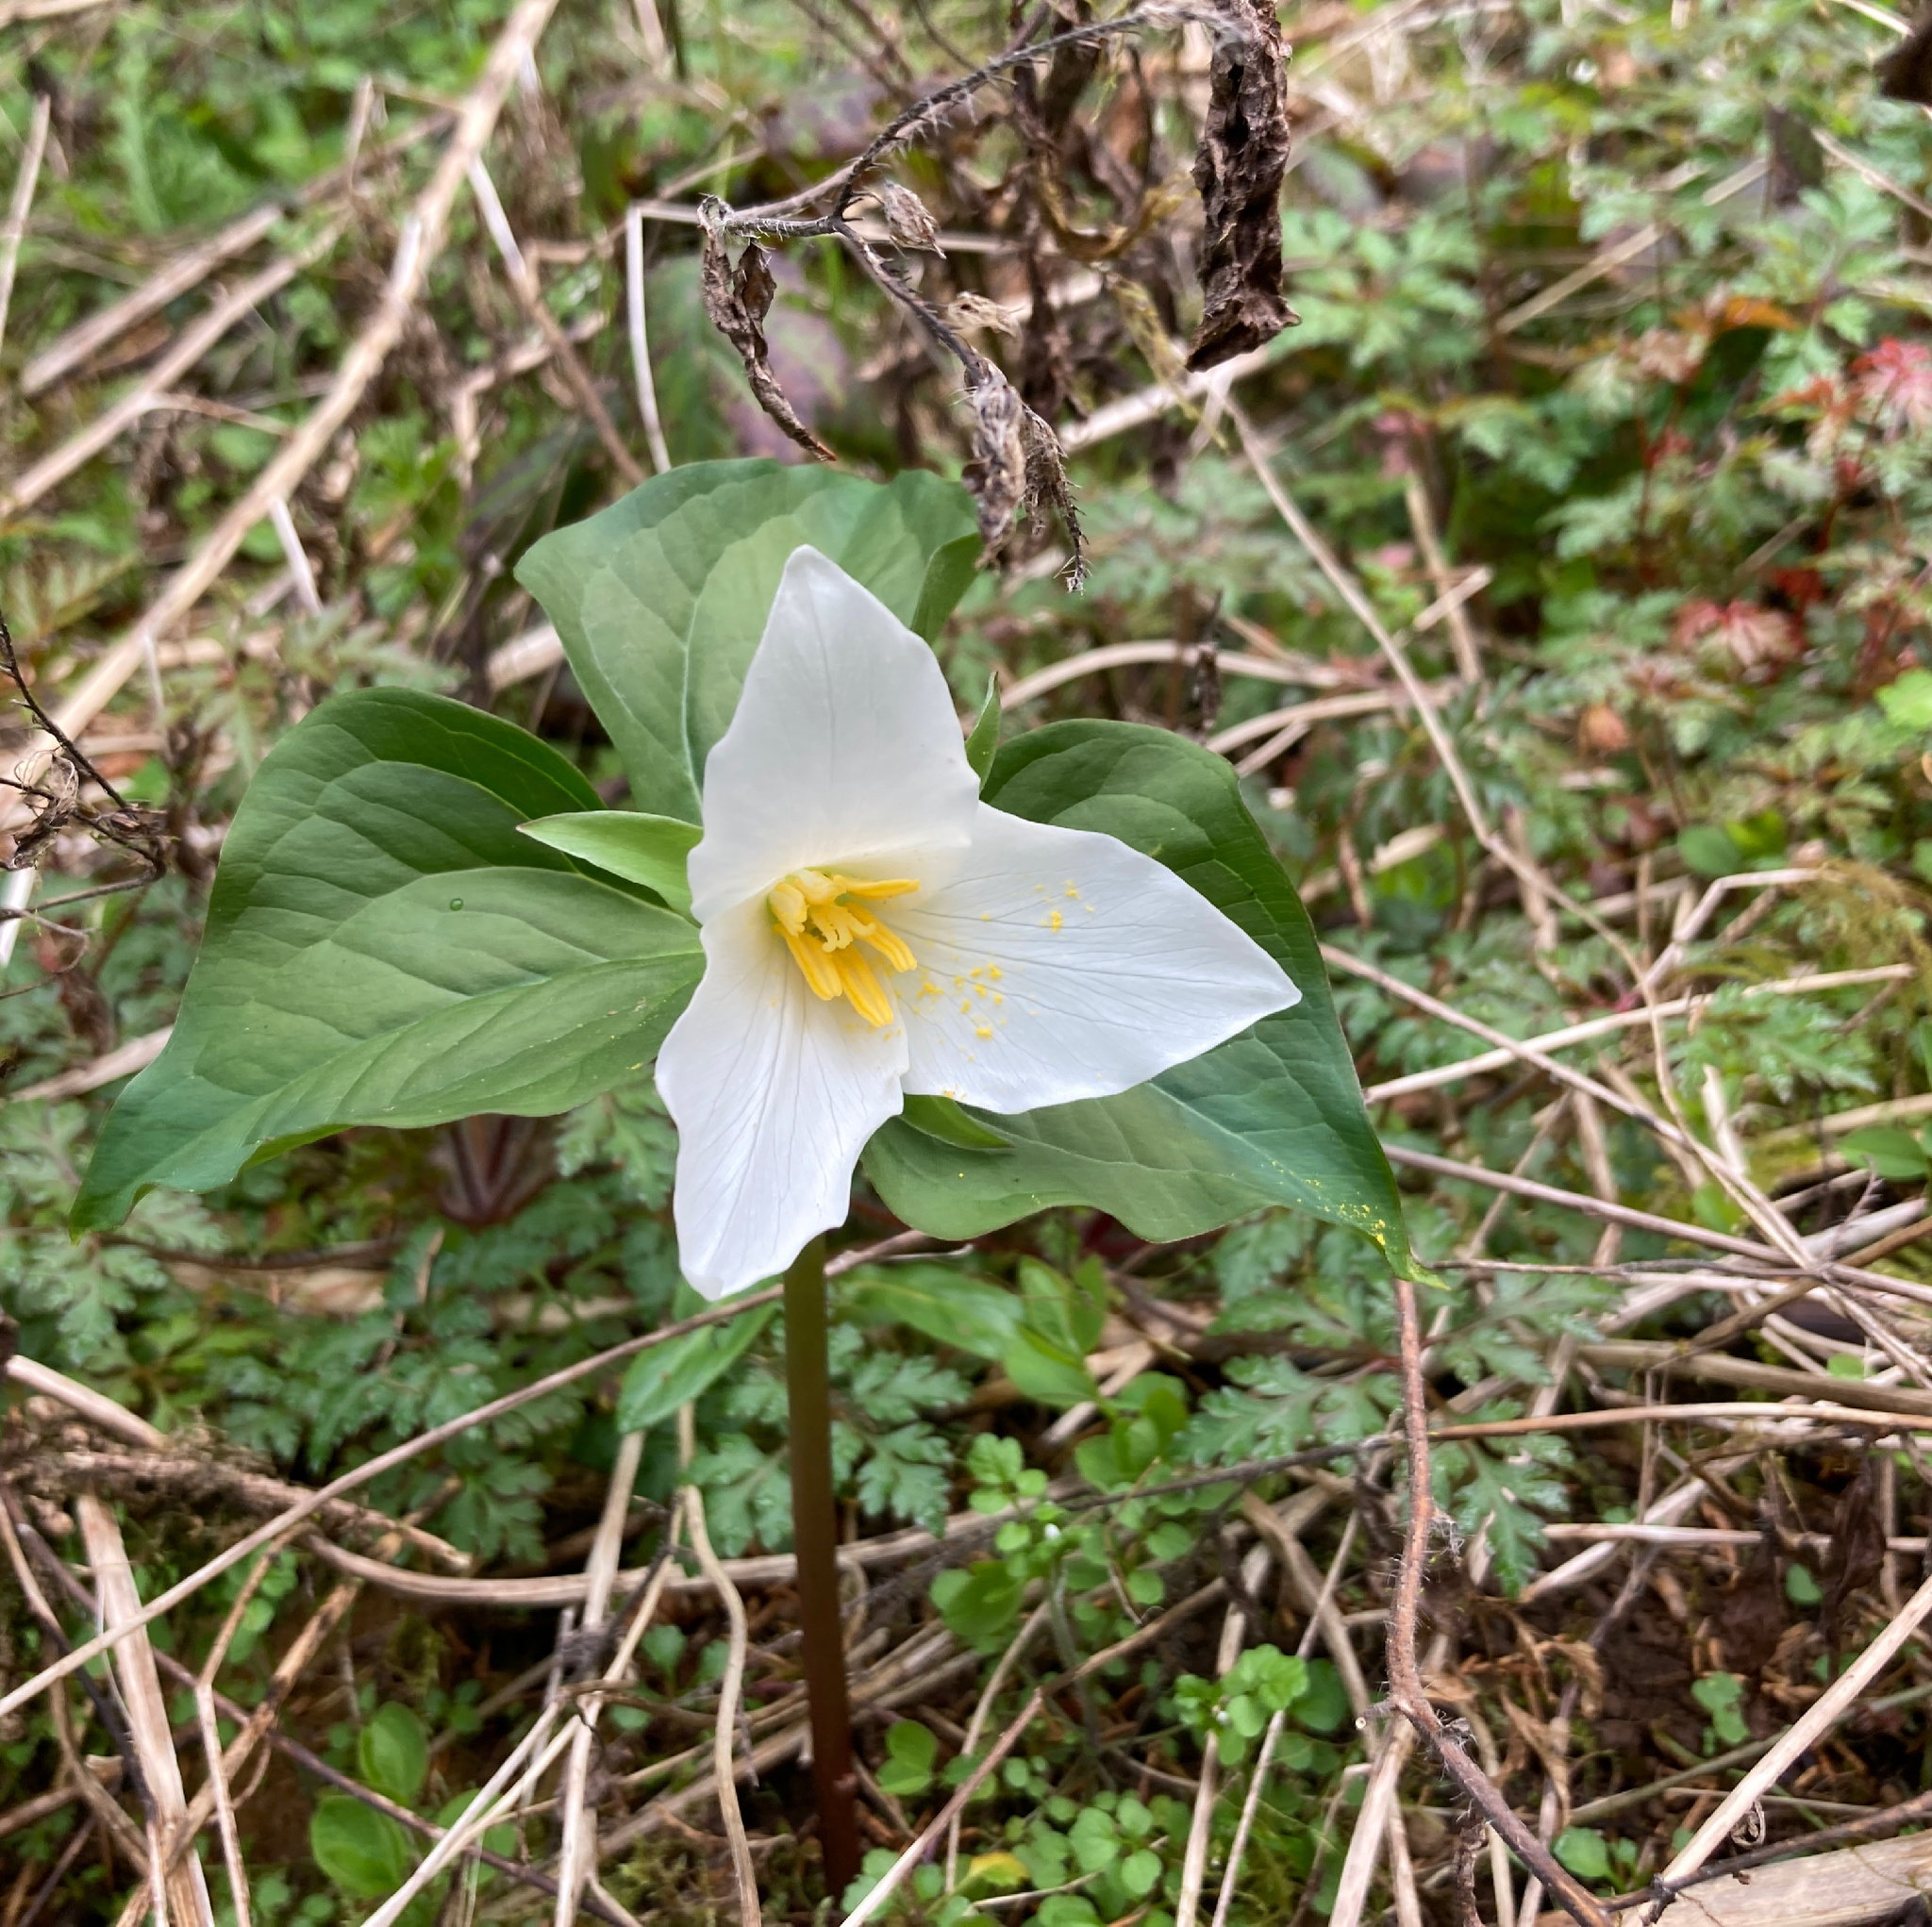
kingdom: Plantae
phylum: Tracheophyta
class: Liliopsida
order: Liliales
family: Melanthiaceae
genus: Trillium
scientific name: Trillium ovatum
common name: Pacific trillium
